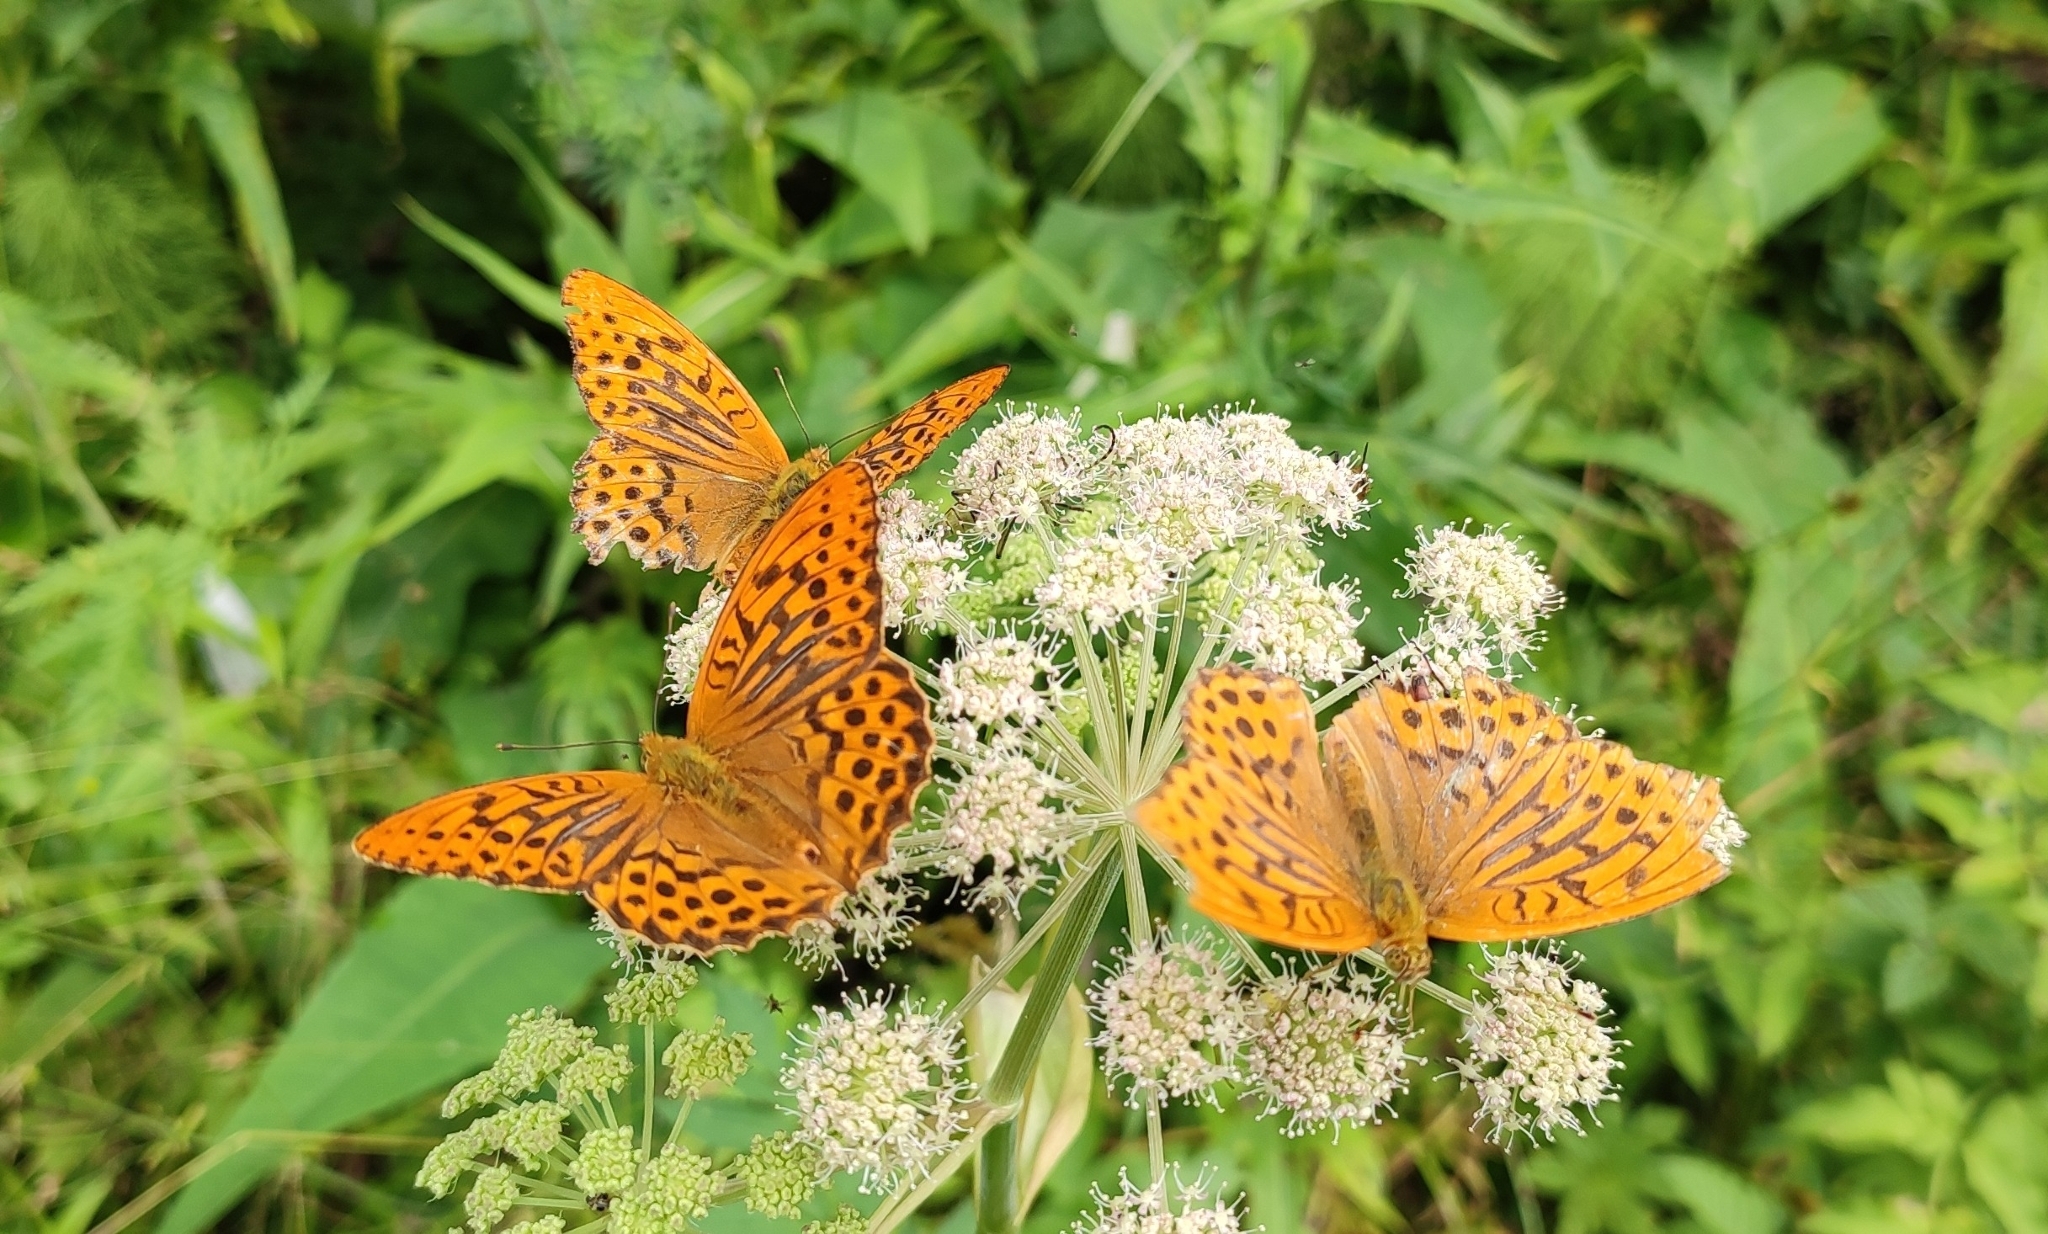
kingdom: Animalia
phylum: Arthropoda
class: Insecta
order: Lepidoptera
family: Nymphalidae
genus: Argynnis
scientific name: Argynnis paphia
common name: Silver-washed fritillary
